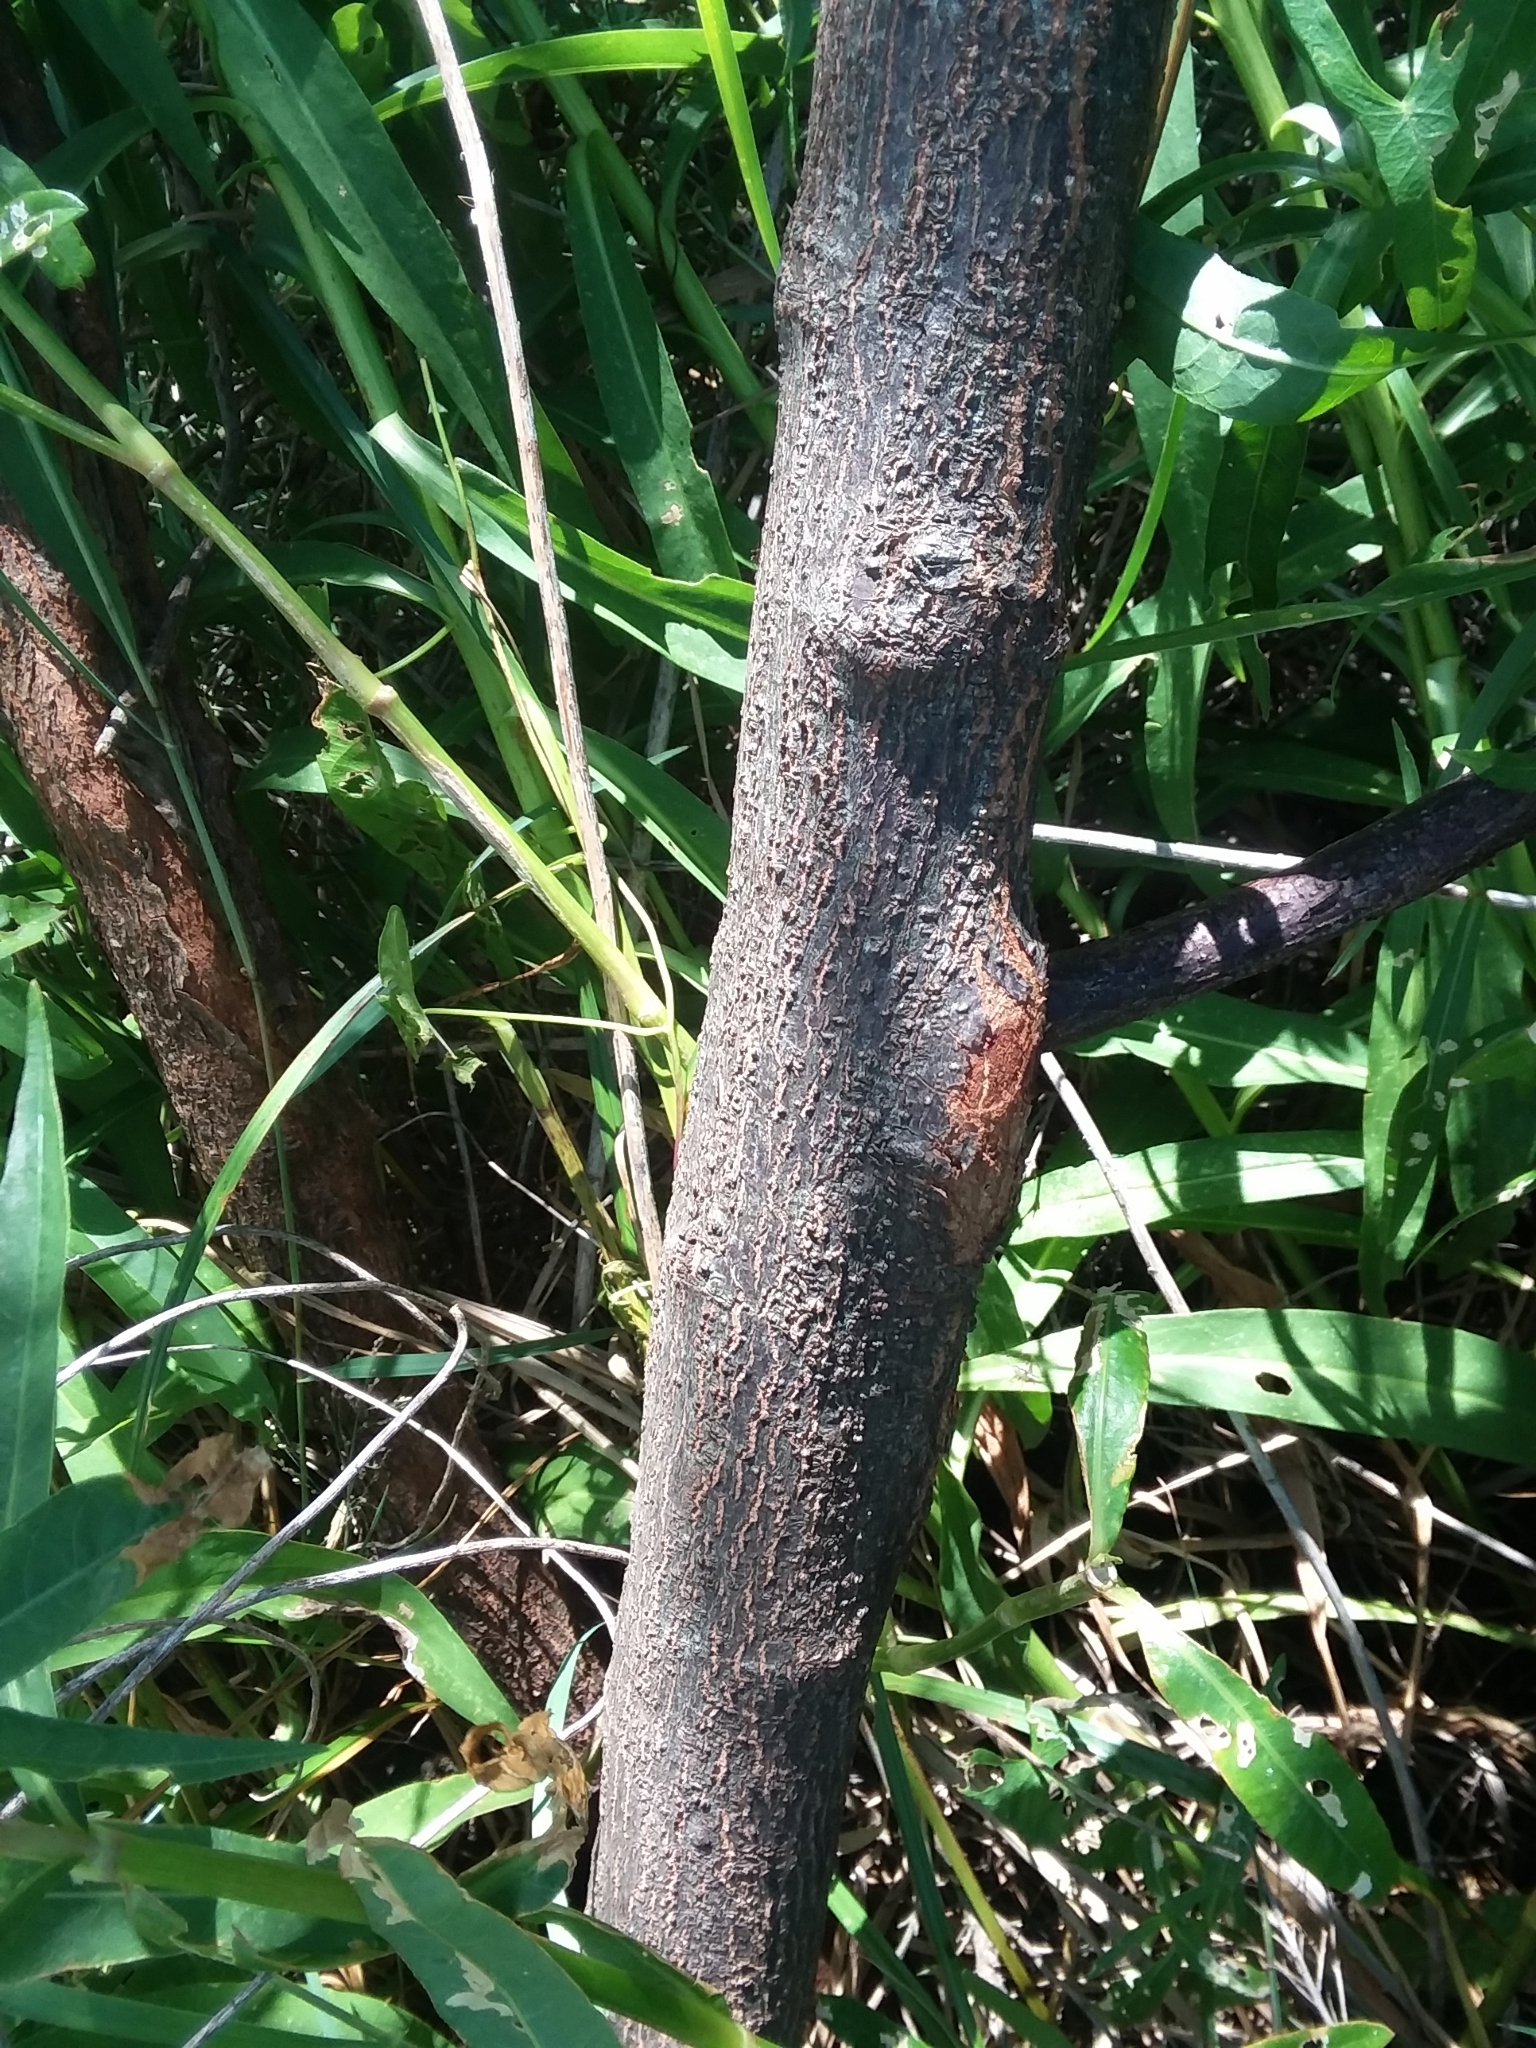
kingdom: Plantae
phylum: Tracheophyta
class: Magnoliopsida
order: Fabales
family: Fabaceae
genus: Sesbania
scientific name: Sesbania drummondii
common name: Poison-bean
